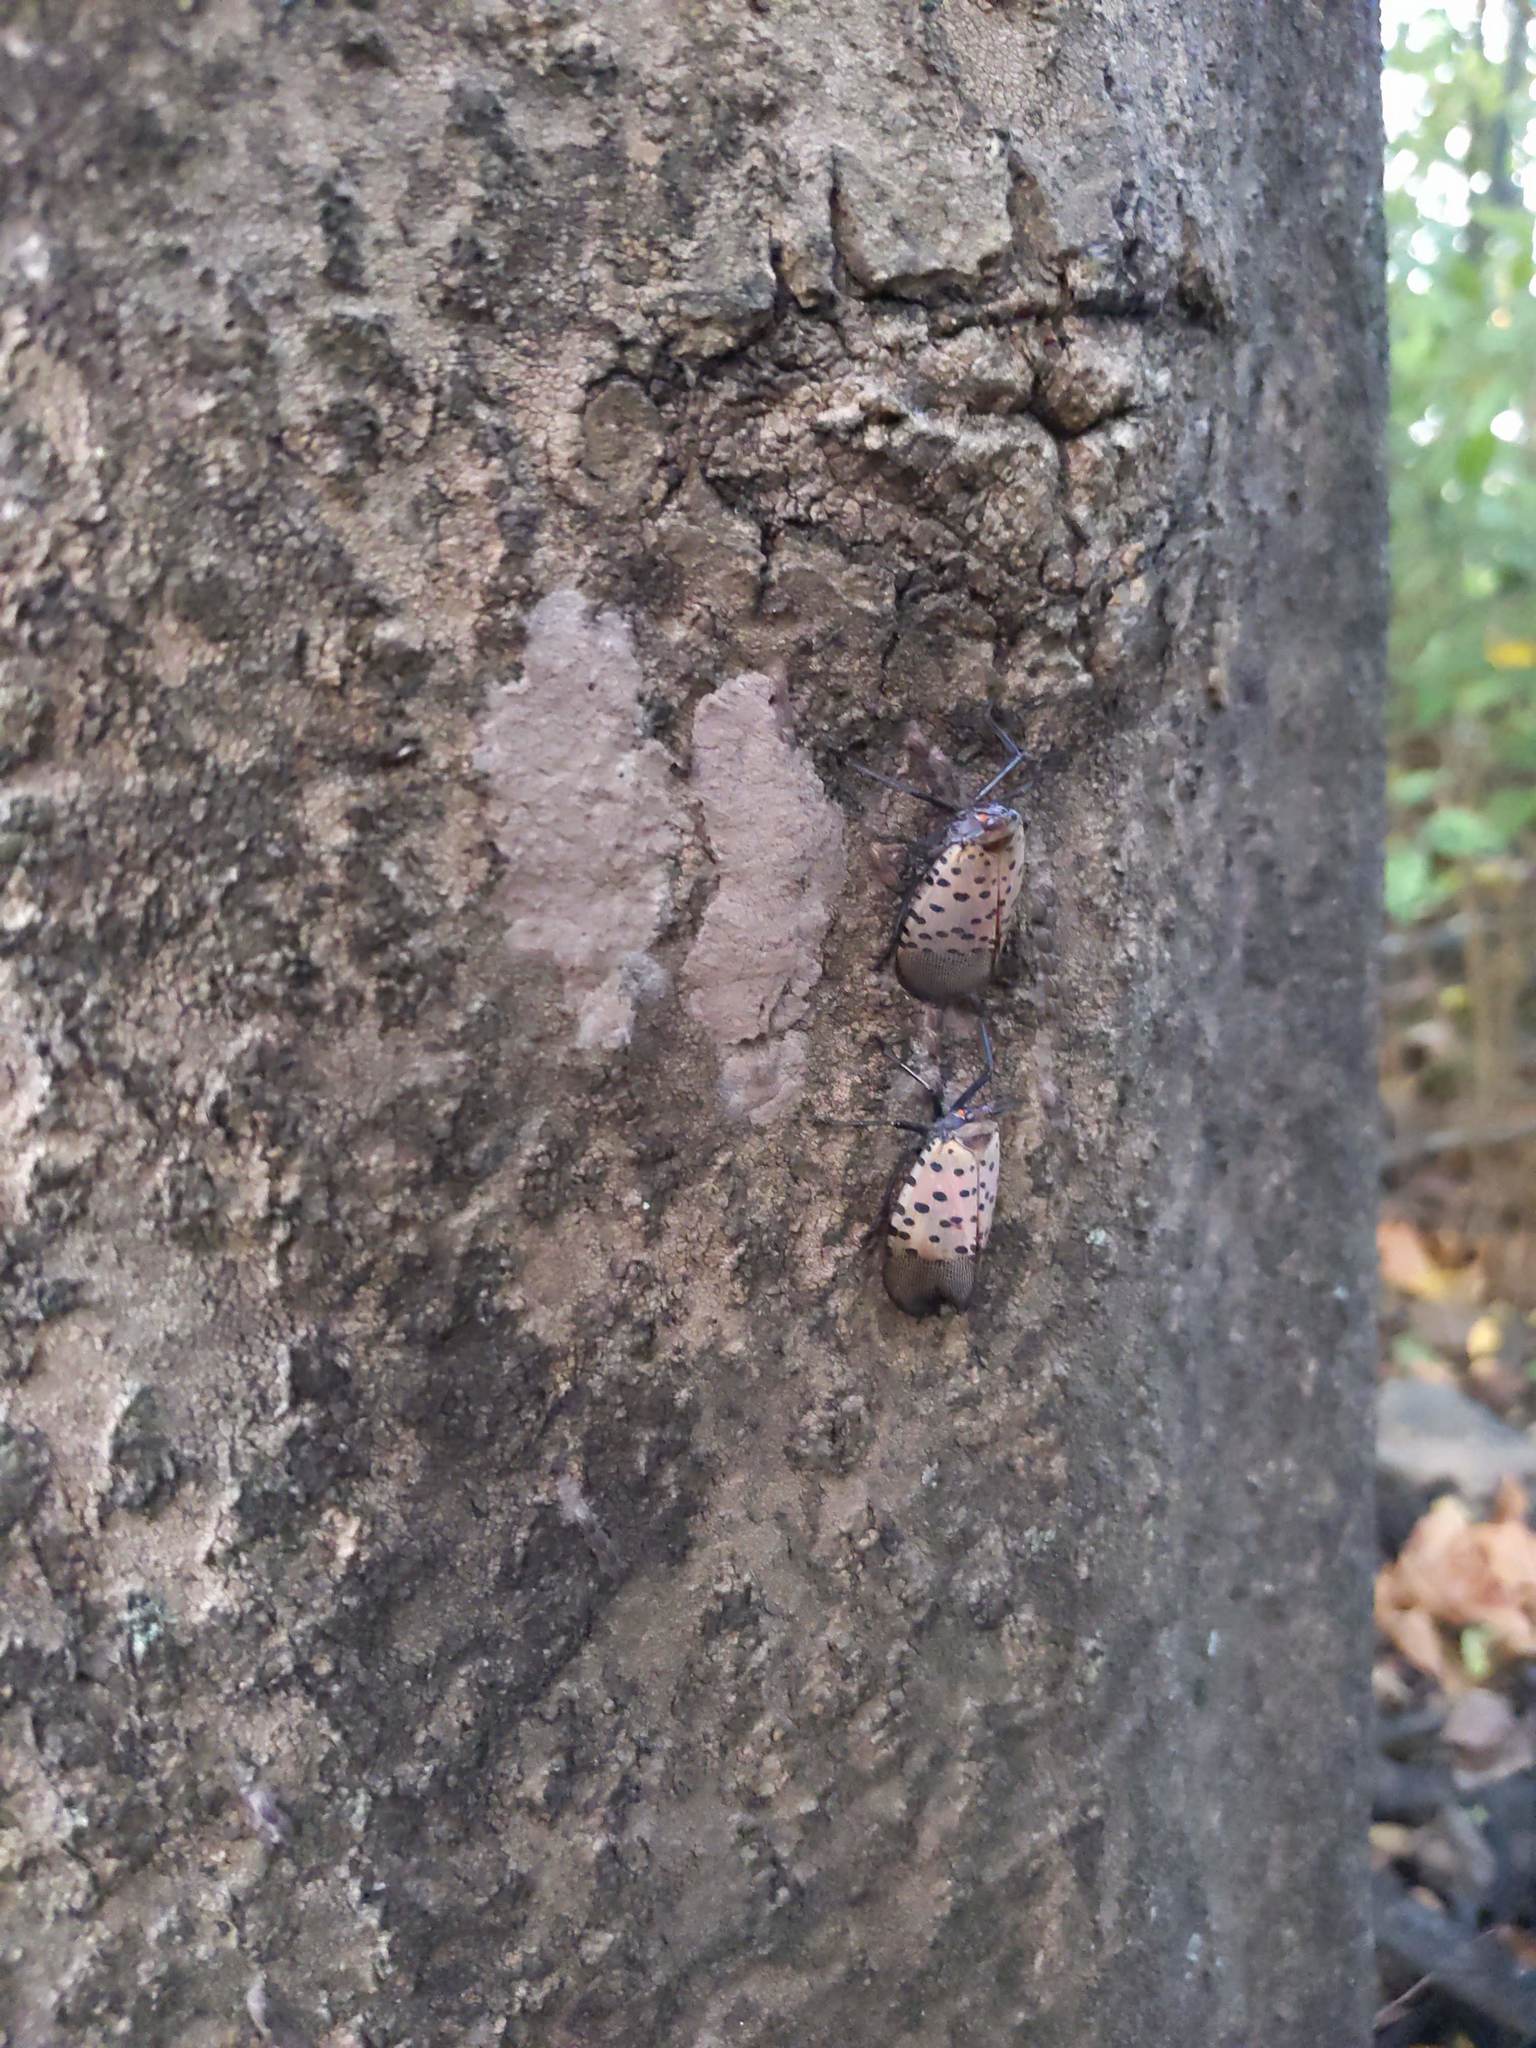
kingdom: Animalia
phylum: Arthropoda
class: Insecta
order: Hemiptera
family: Fulgoridae
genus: Lycorma
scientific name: Lycorma delicatula
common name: Spotted lanternfly
